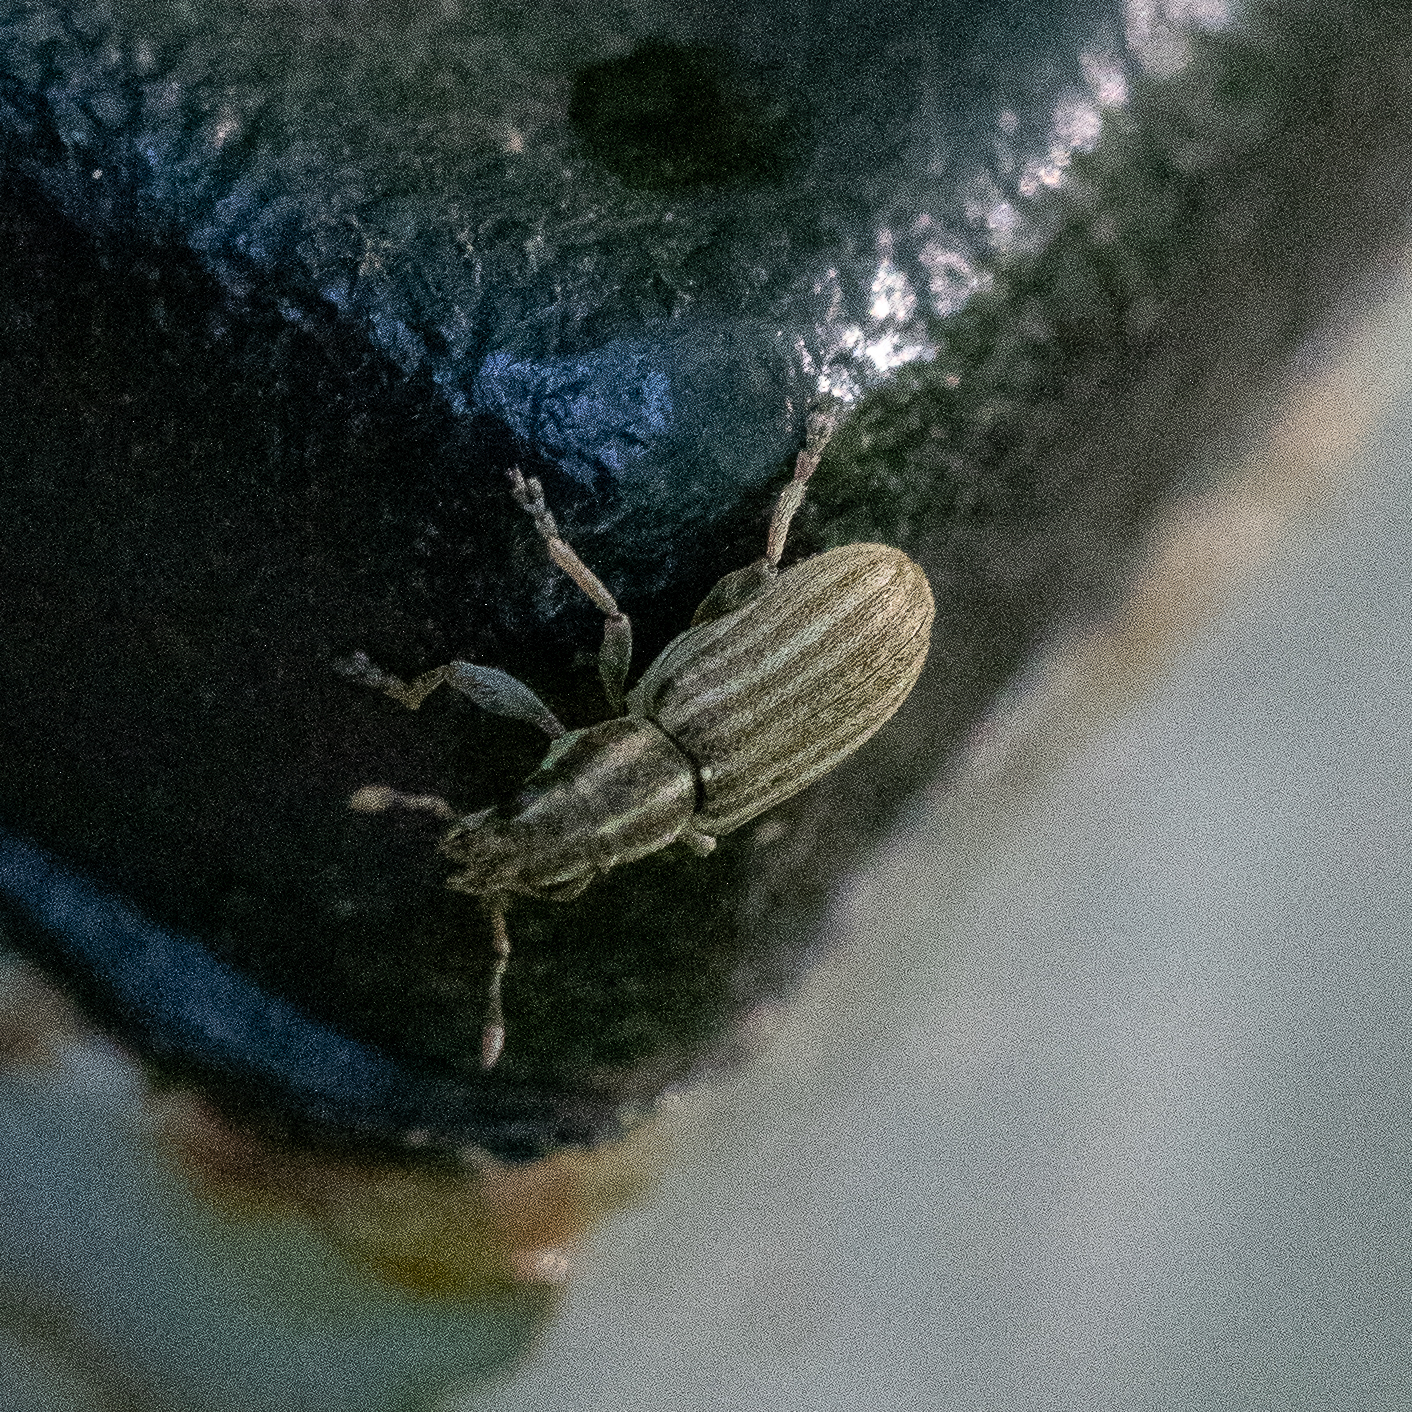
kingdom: Animalia
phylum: Arthropoda
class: Insecta
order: Coleoptera
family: Curculionidae
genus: Sitona
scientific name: Sitona lineatus
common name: Weevil
